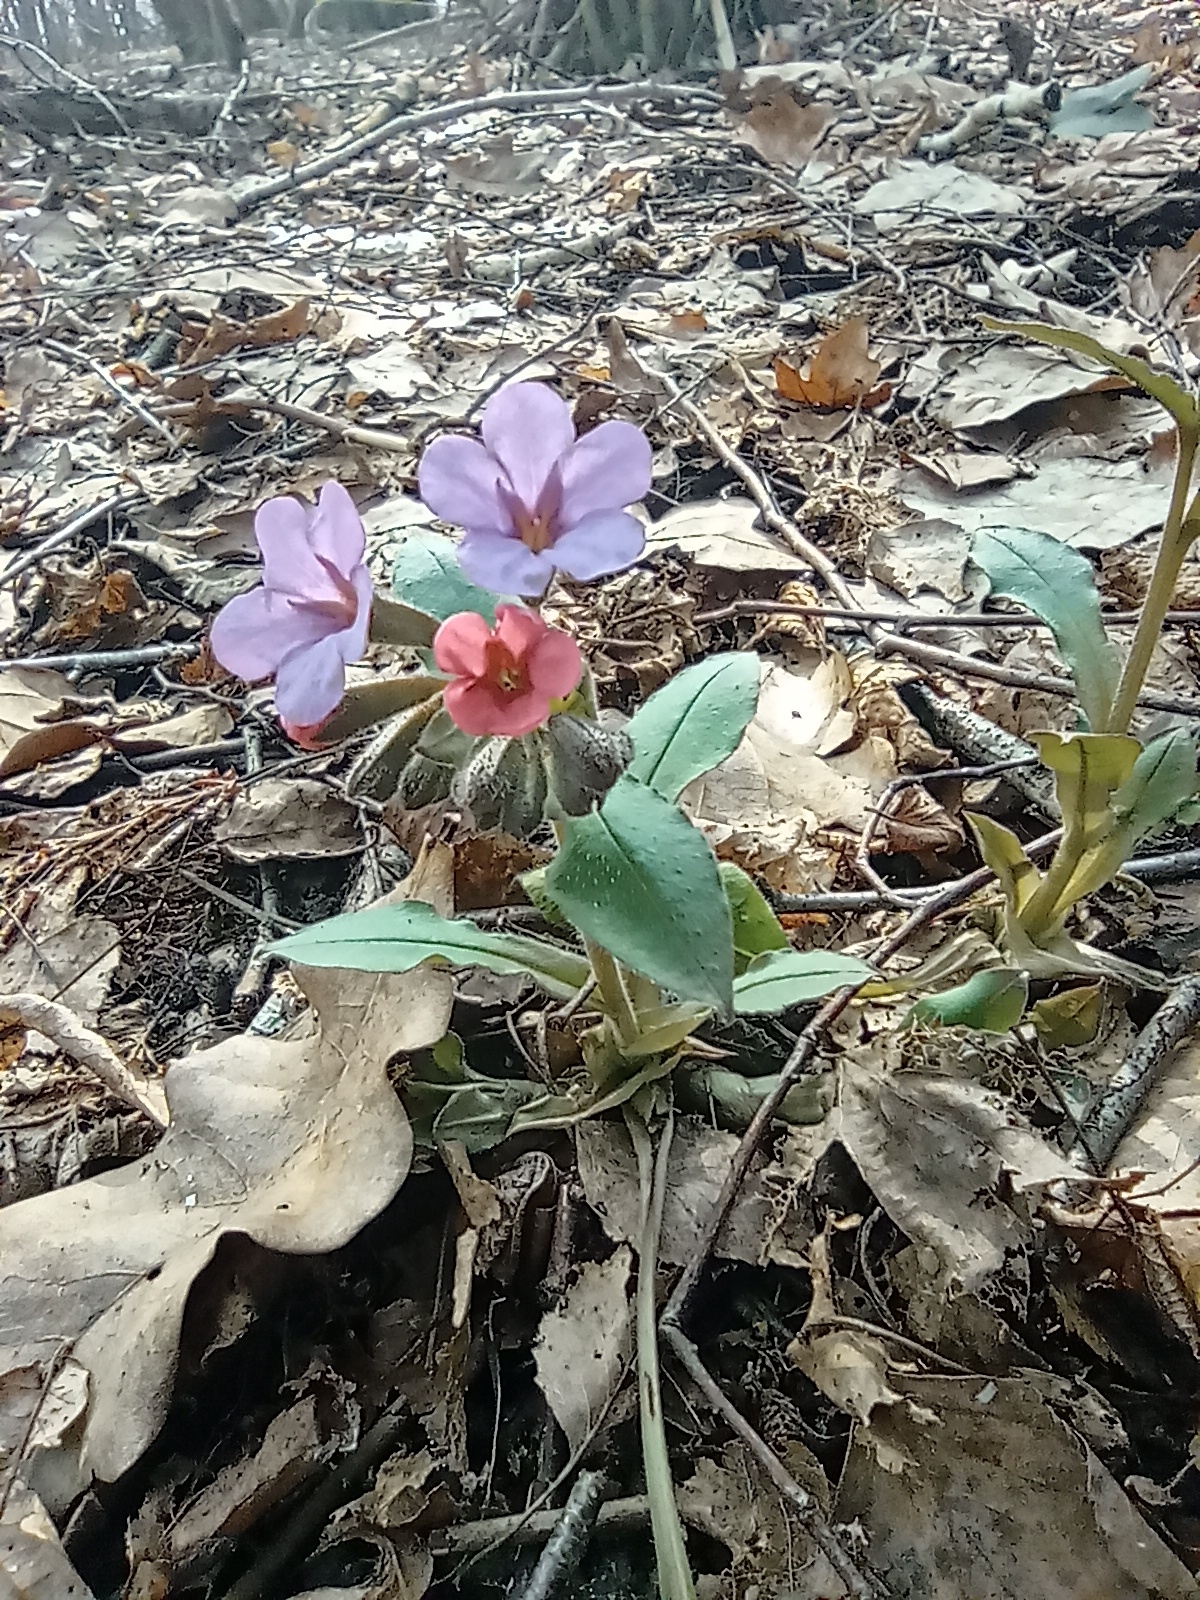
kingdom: Plantae
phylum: Tracheophyta
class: Magnoliopsida
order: Boraginales
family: Boraginaceae
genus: Pulmonaria
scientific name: Pulmonaria obscura
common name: Suffolk lungwort
